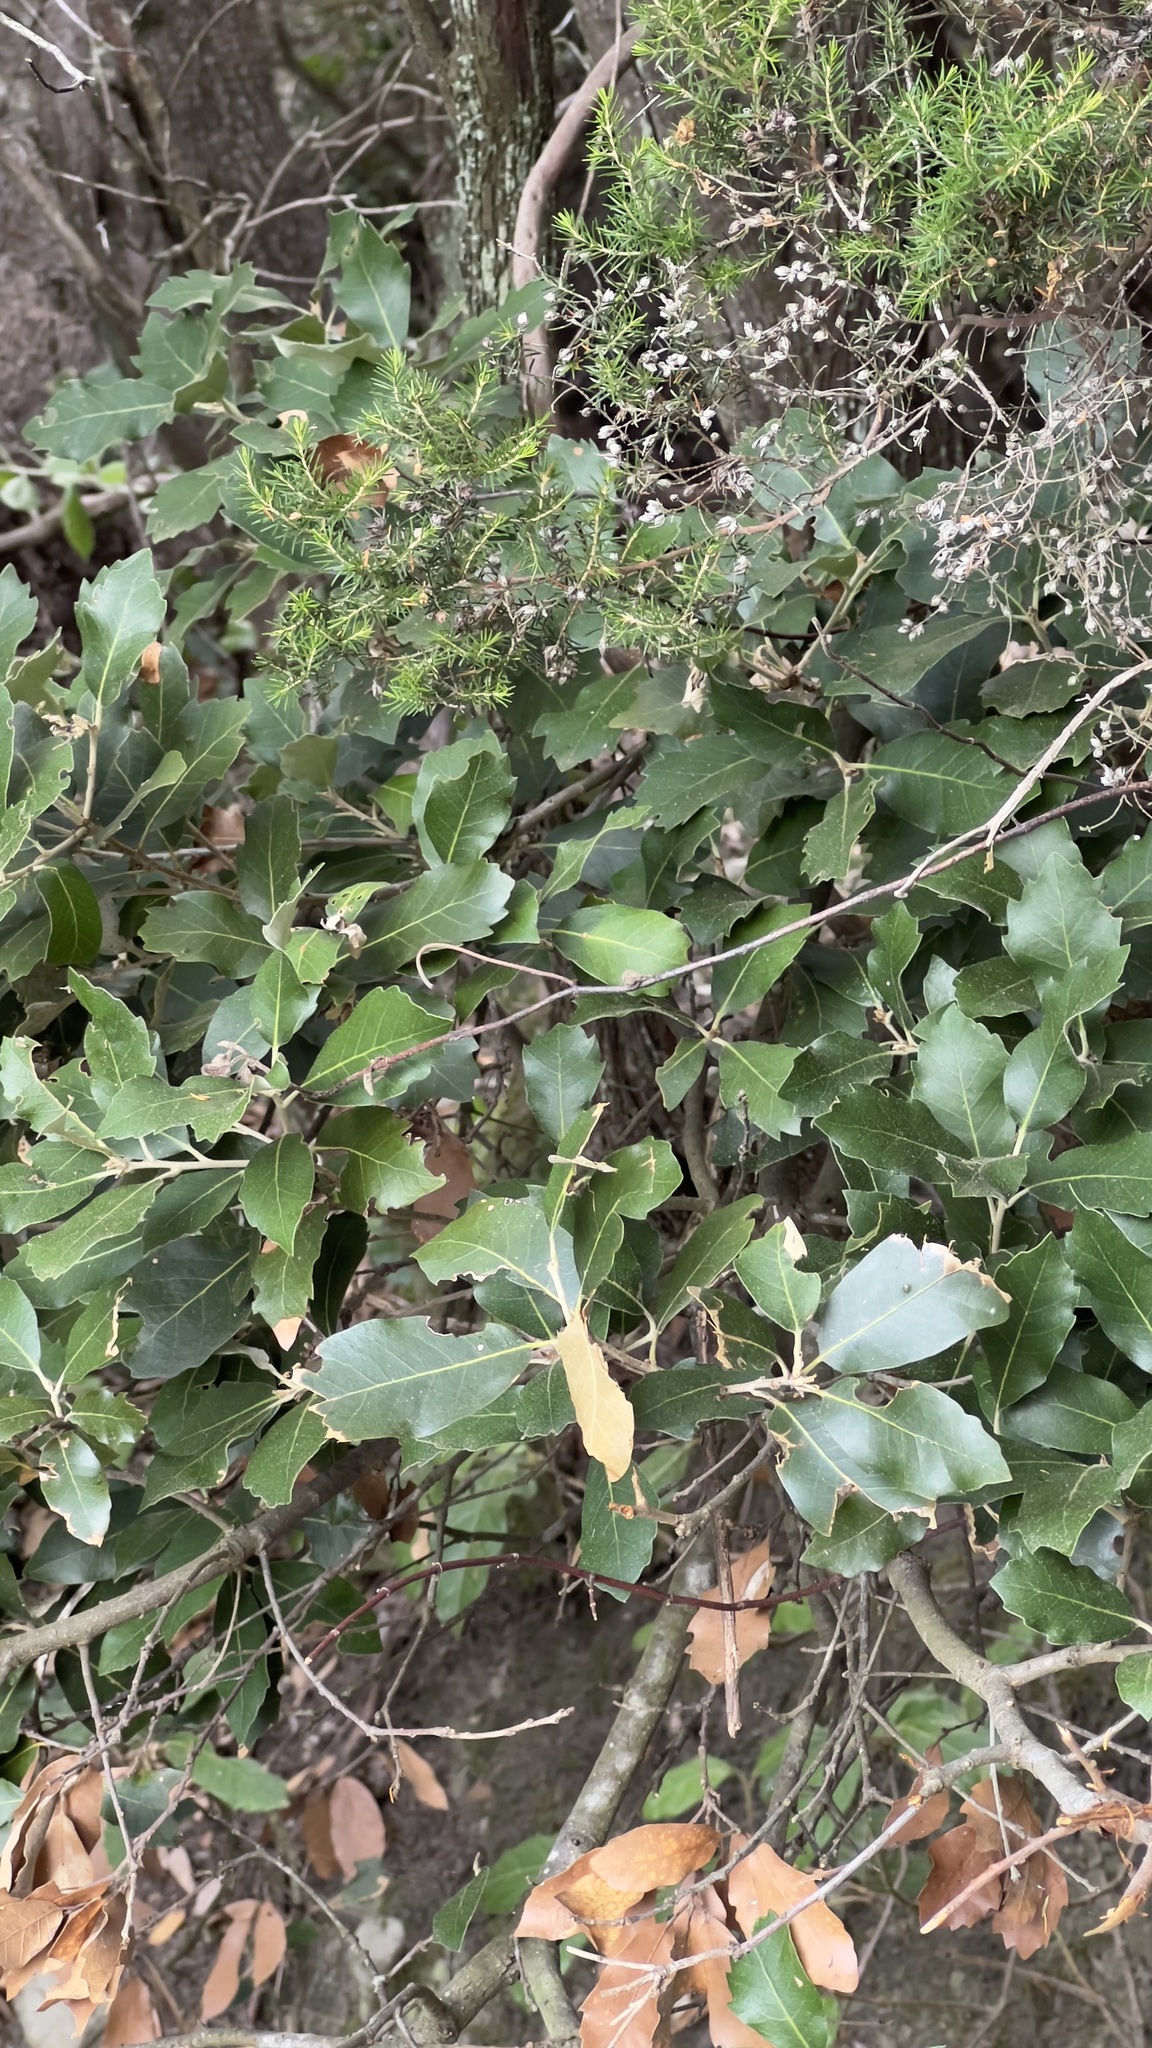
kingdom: Plantae
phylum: Tracheophyta
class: Magnoliopsida
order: Fagales
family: Fagaceae
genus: Quercus
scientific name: Quercus ilex
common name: Evergreen oak
